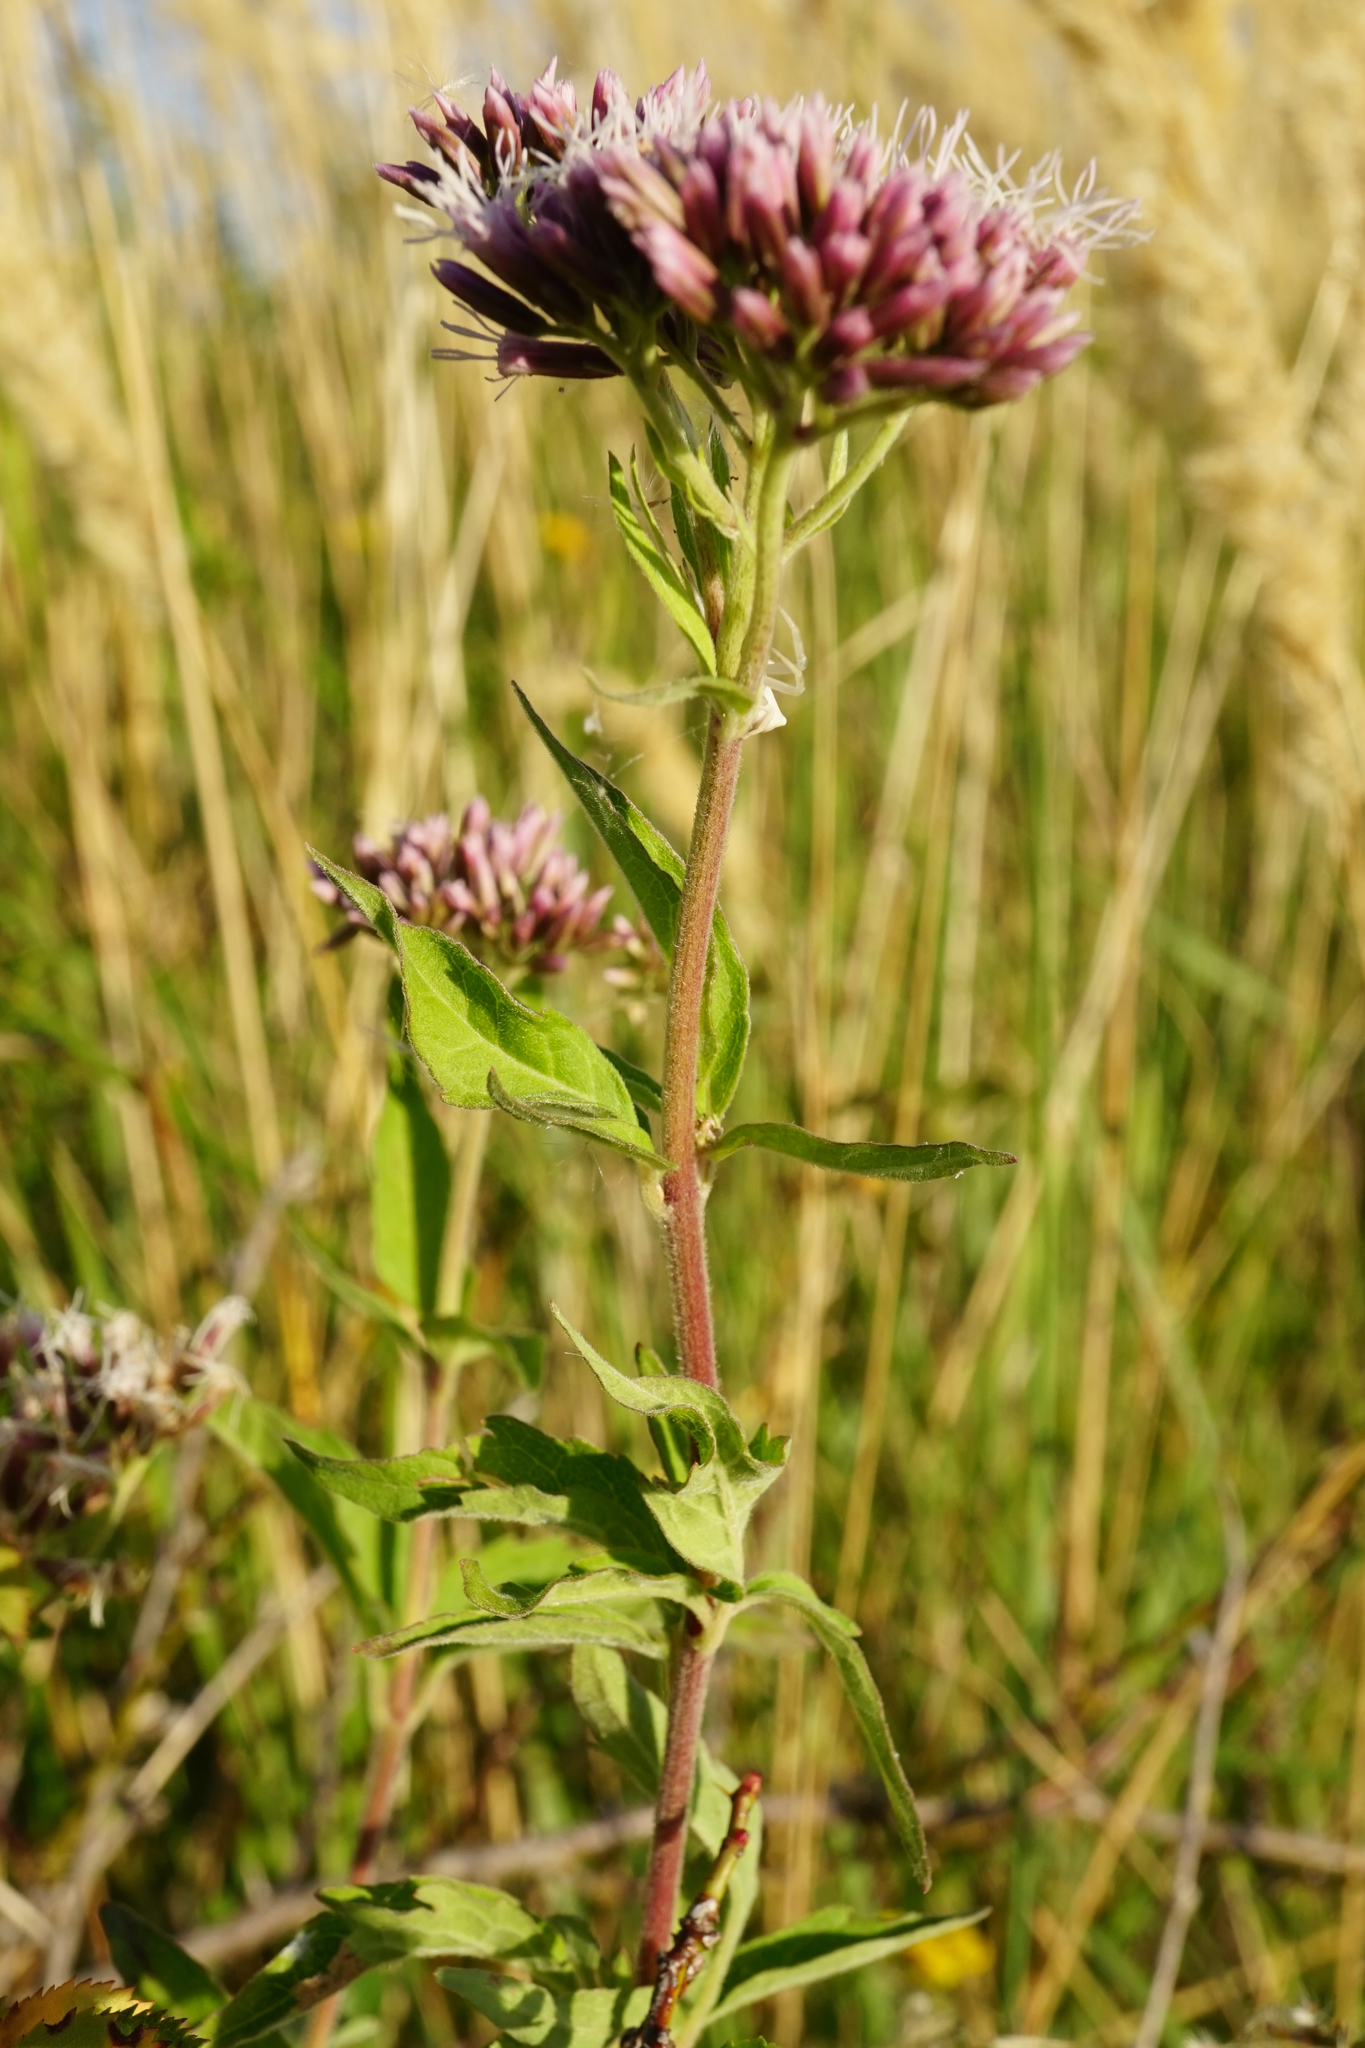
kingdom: Plantae
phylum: Tracheophyta
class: Magnoliopsida
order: Asterales
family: Asteraceae
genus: Eupatorium
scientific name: Eupatorium cannabinum
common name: Hemp-agrimony
